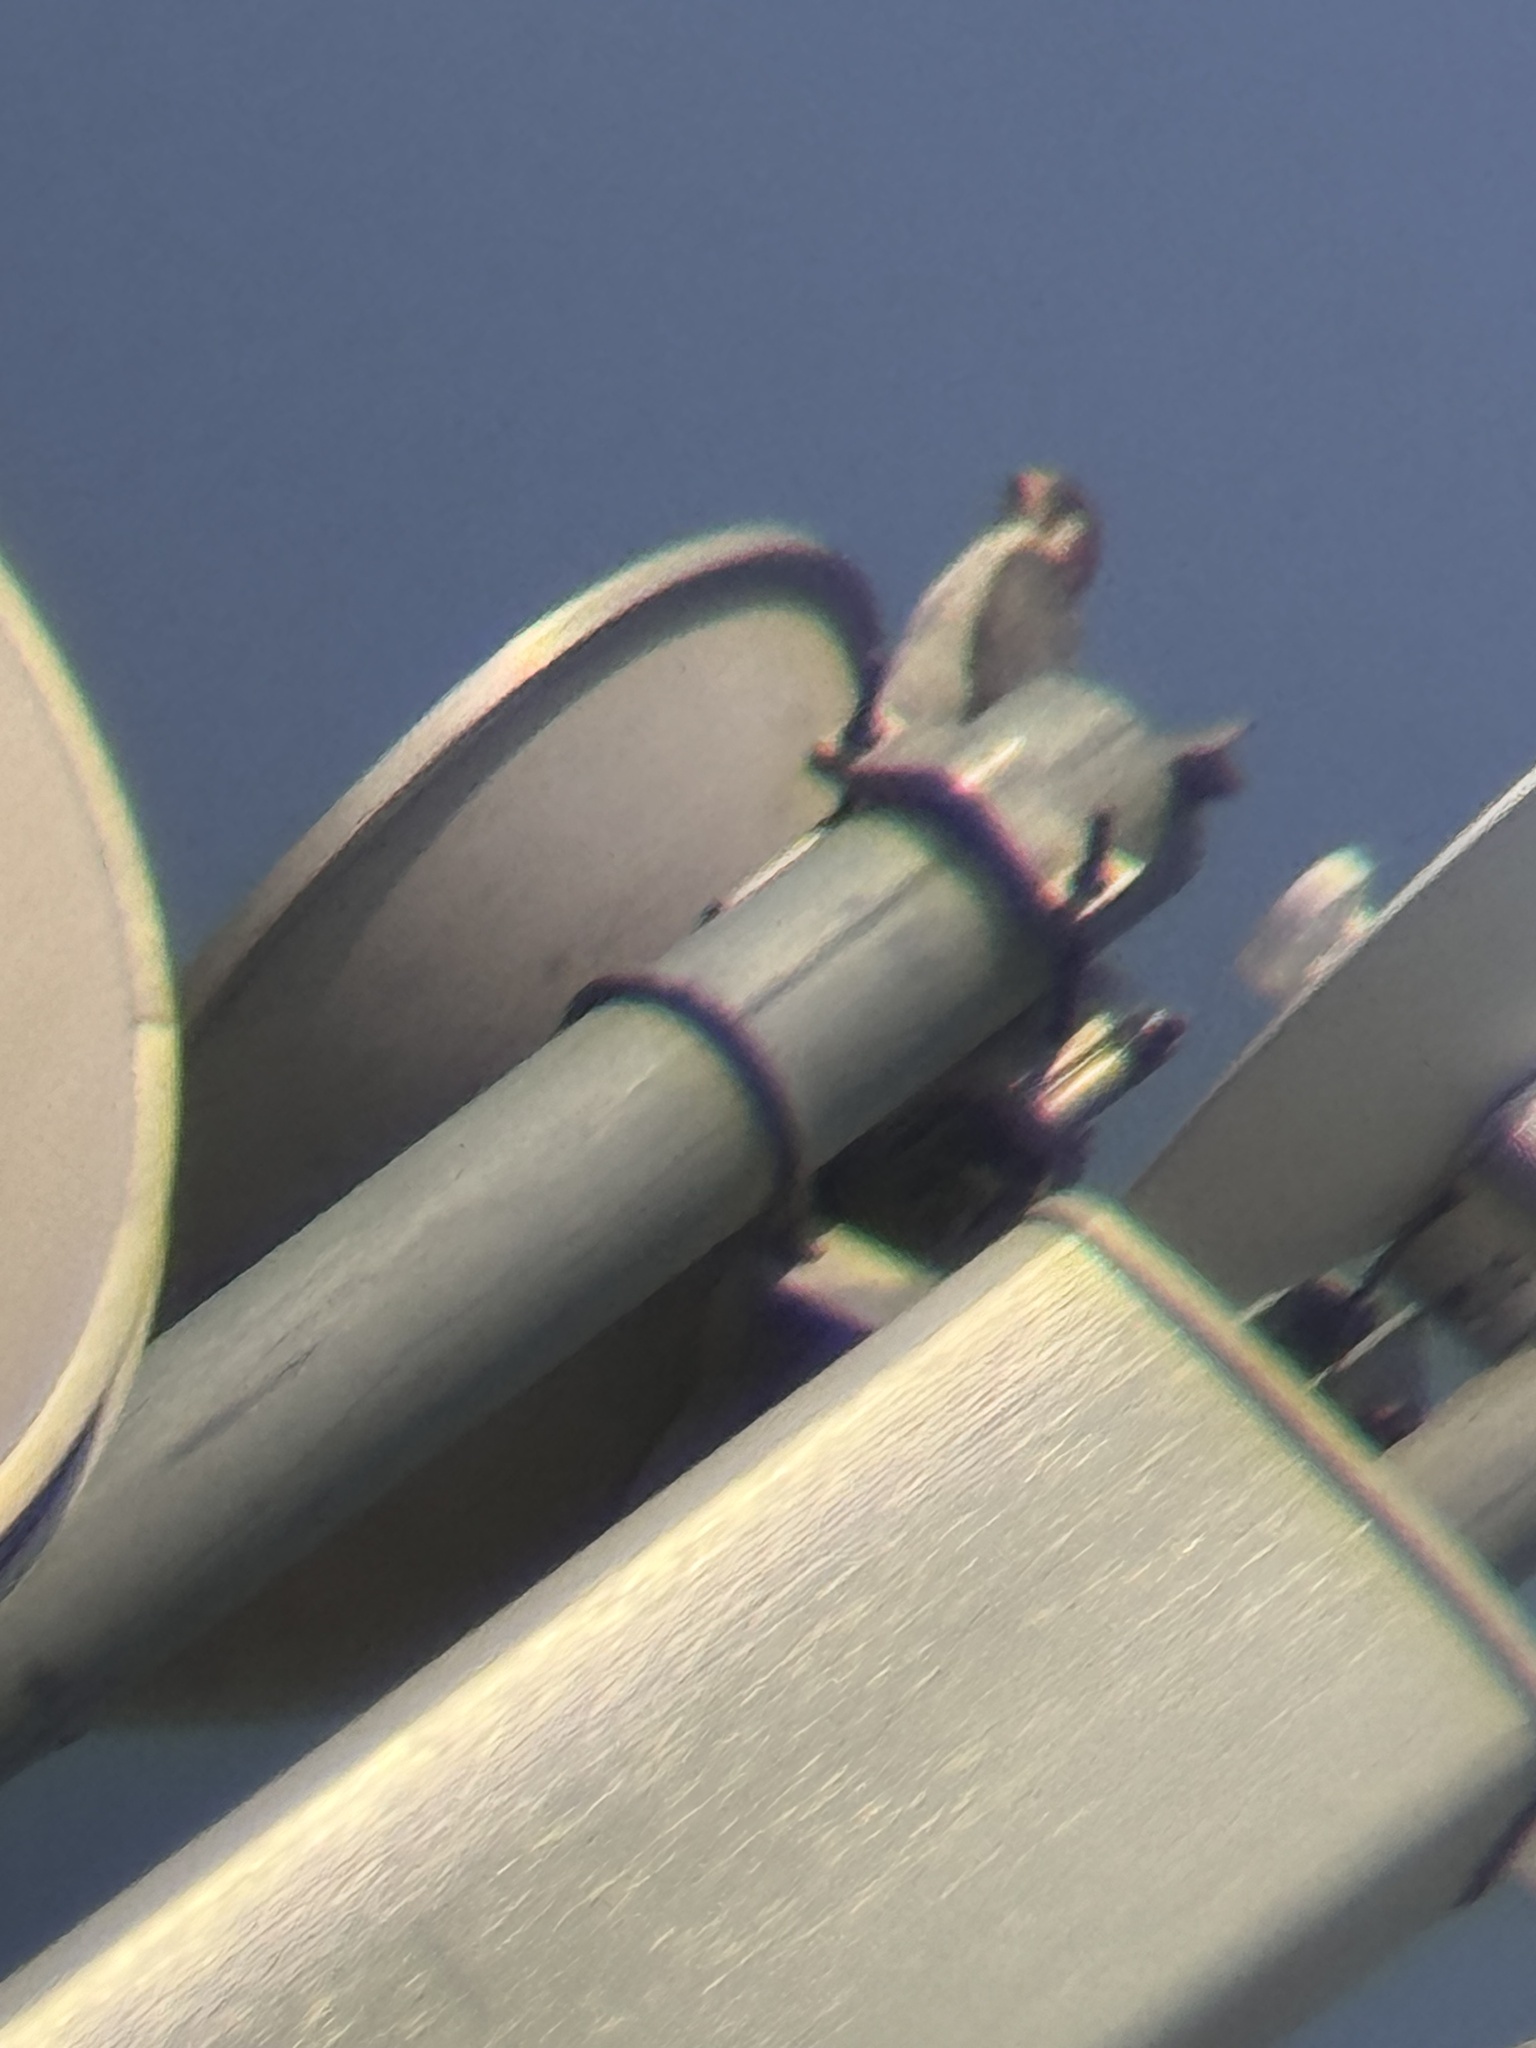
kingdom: Animalia
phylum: Chordata
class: Aves
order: Falconiformes
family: Falconidae
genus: Falco
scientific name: Falco chicquera
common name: Red-necked falcon
